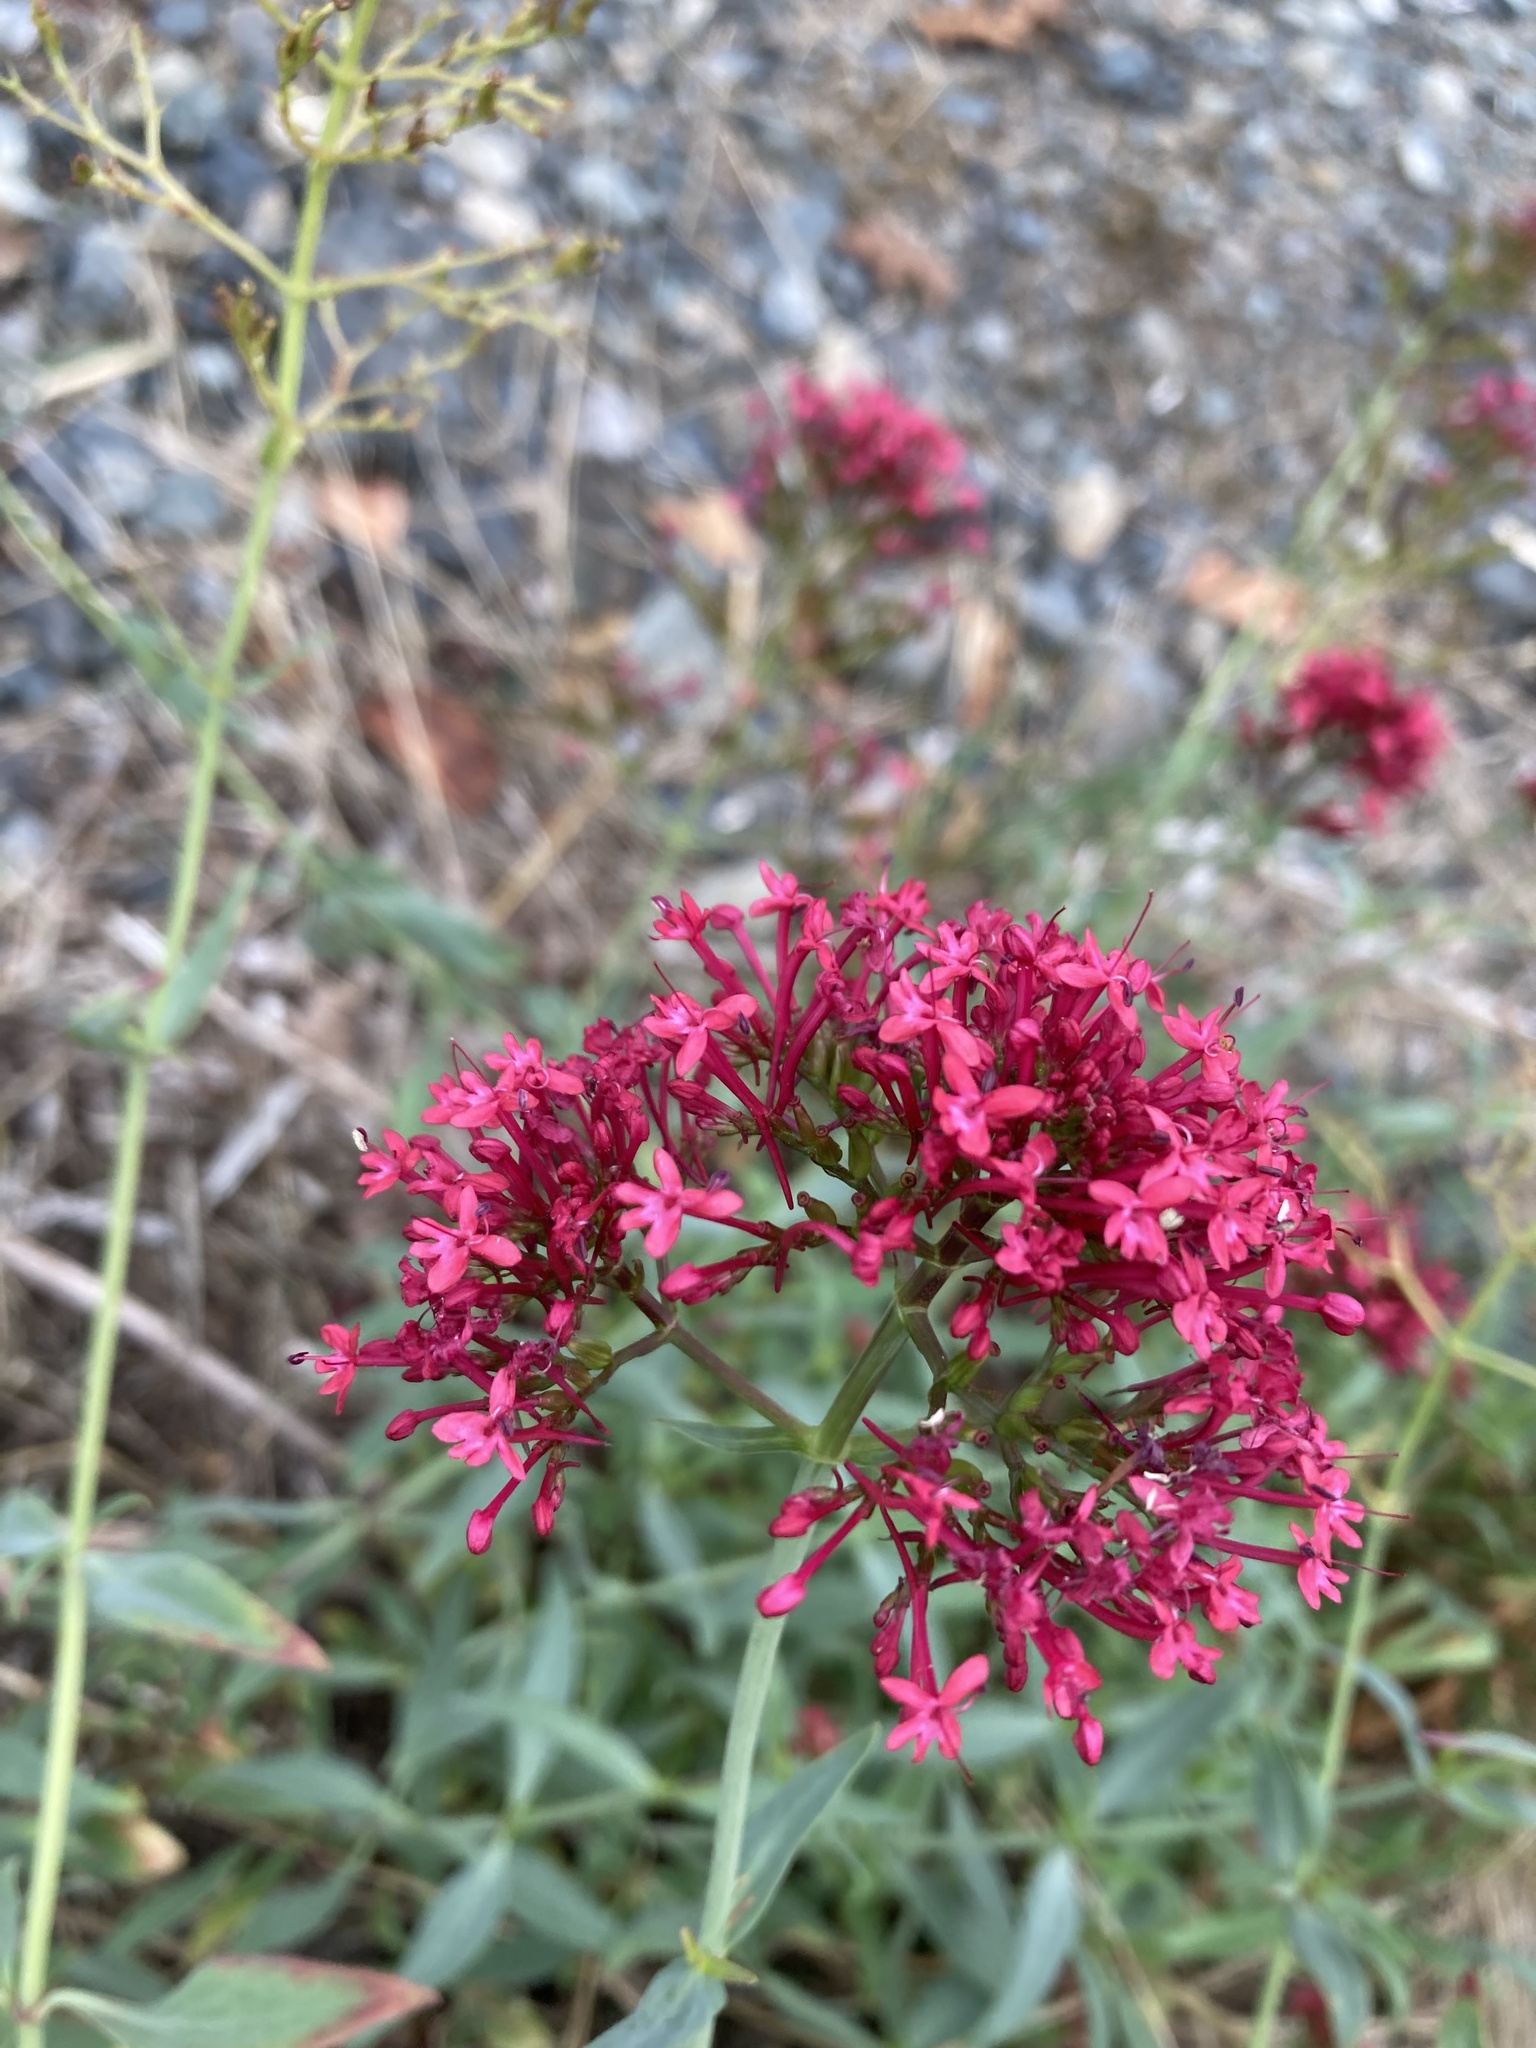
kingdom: Plantae
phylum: Tracheophyta
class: Magnoliopsida
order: Dipsacales
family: Caprifoliaceae
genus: Centranthus
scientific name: Centranthus ruber
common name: Red valerian
